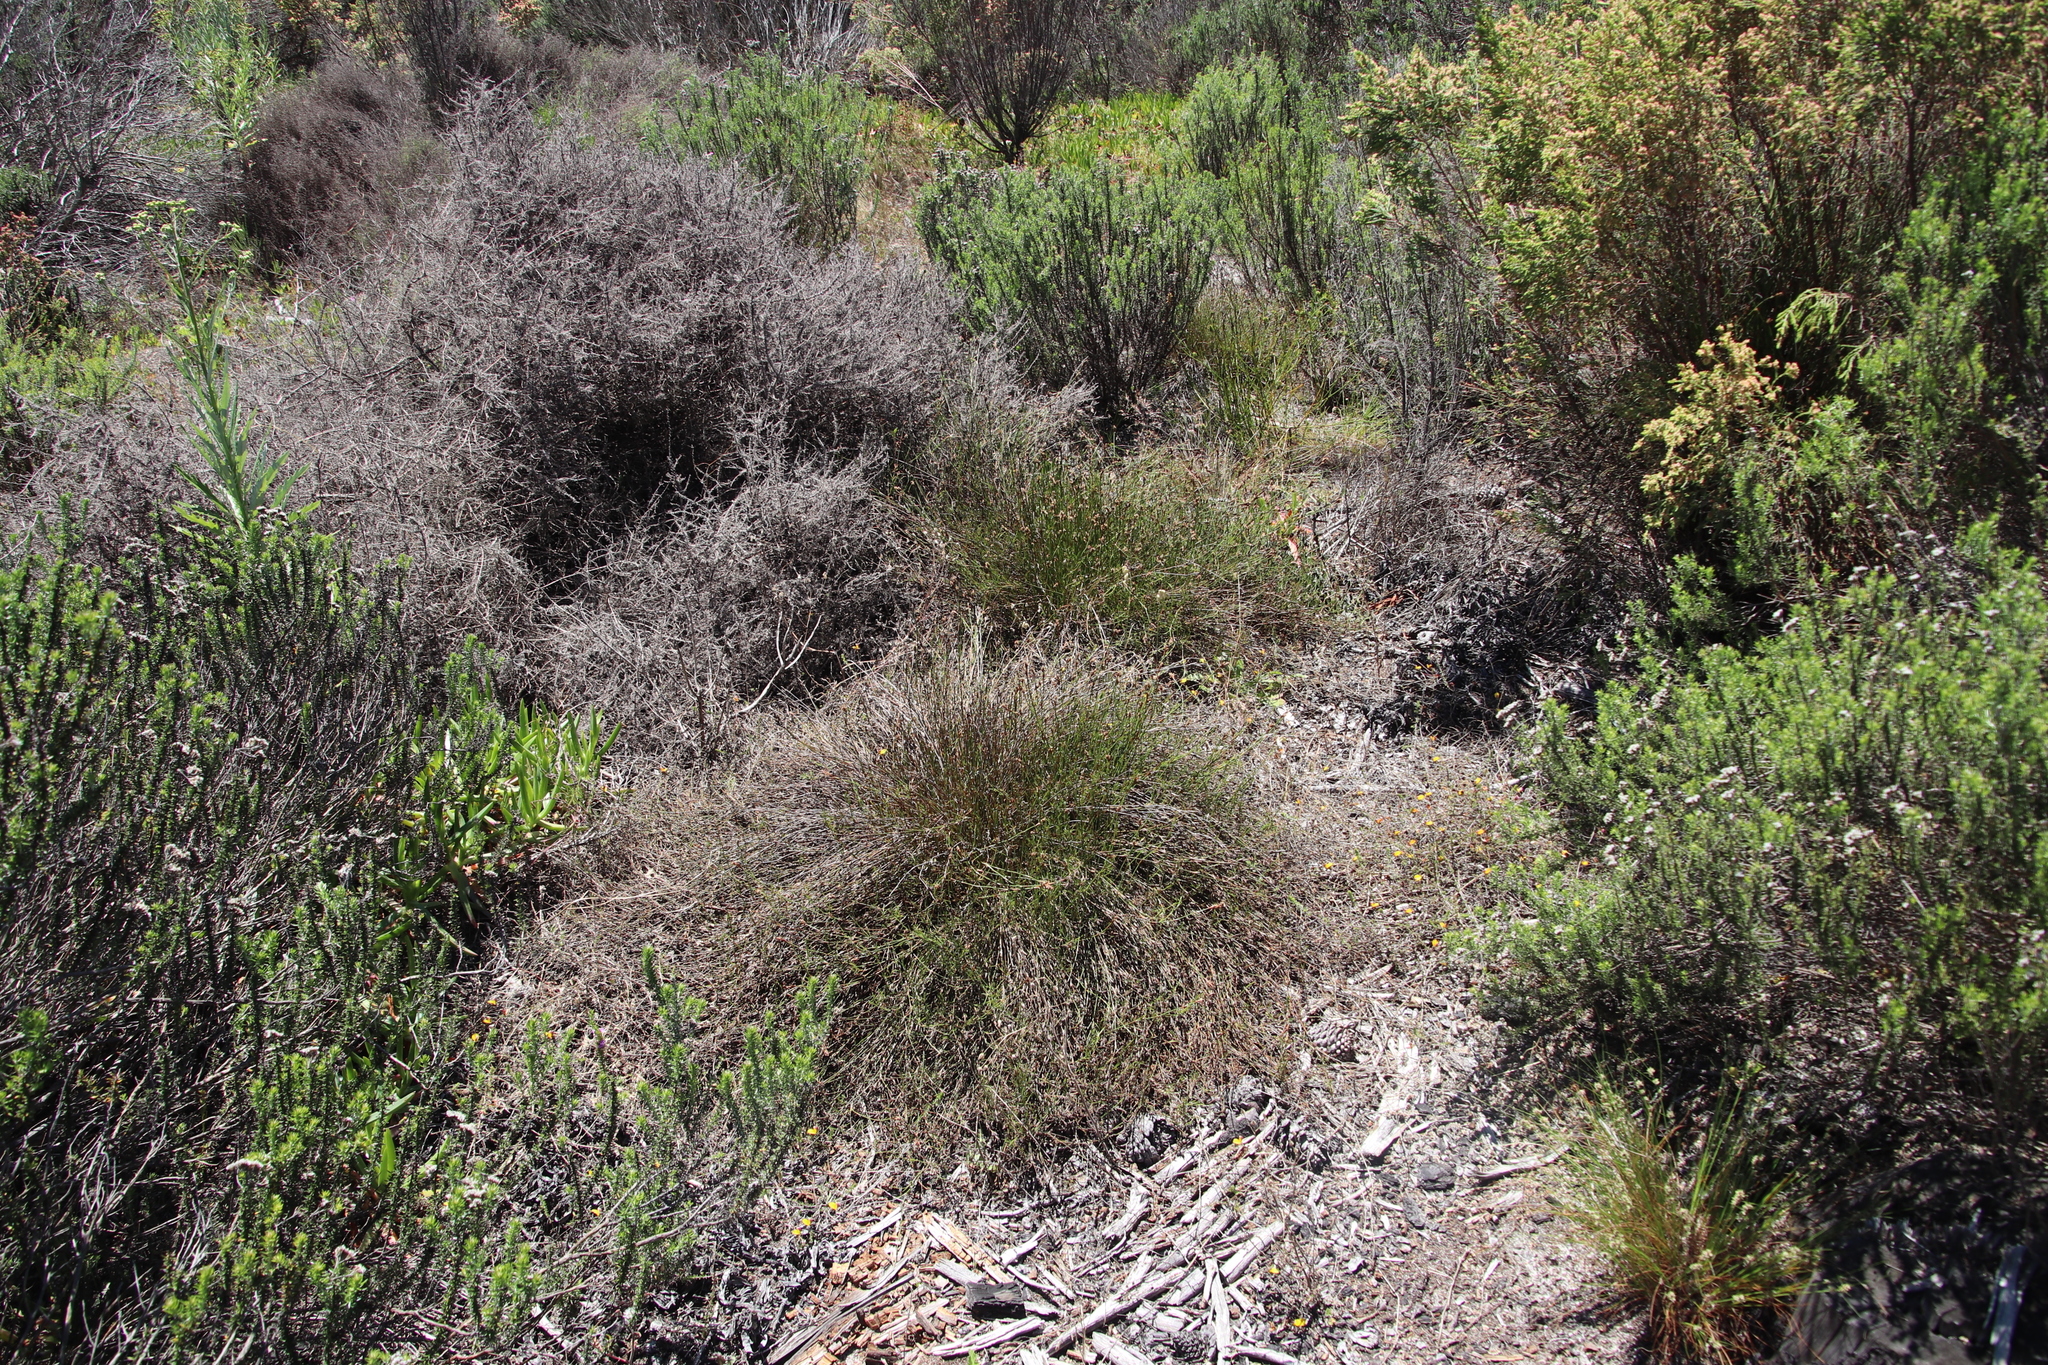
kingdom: Plantae
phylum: Tracheophyta
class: Liliopsida
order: Poales
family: Restionaceae
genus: Restio
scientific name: Restio capensis
